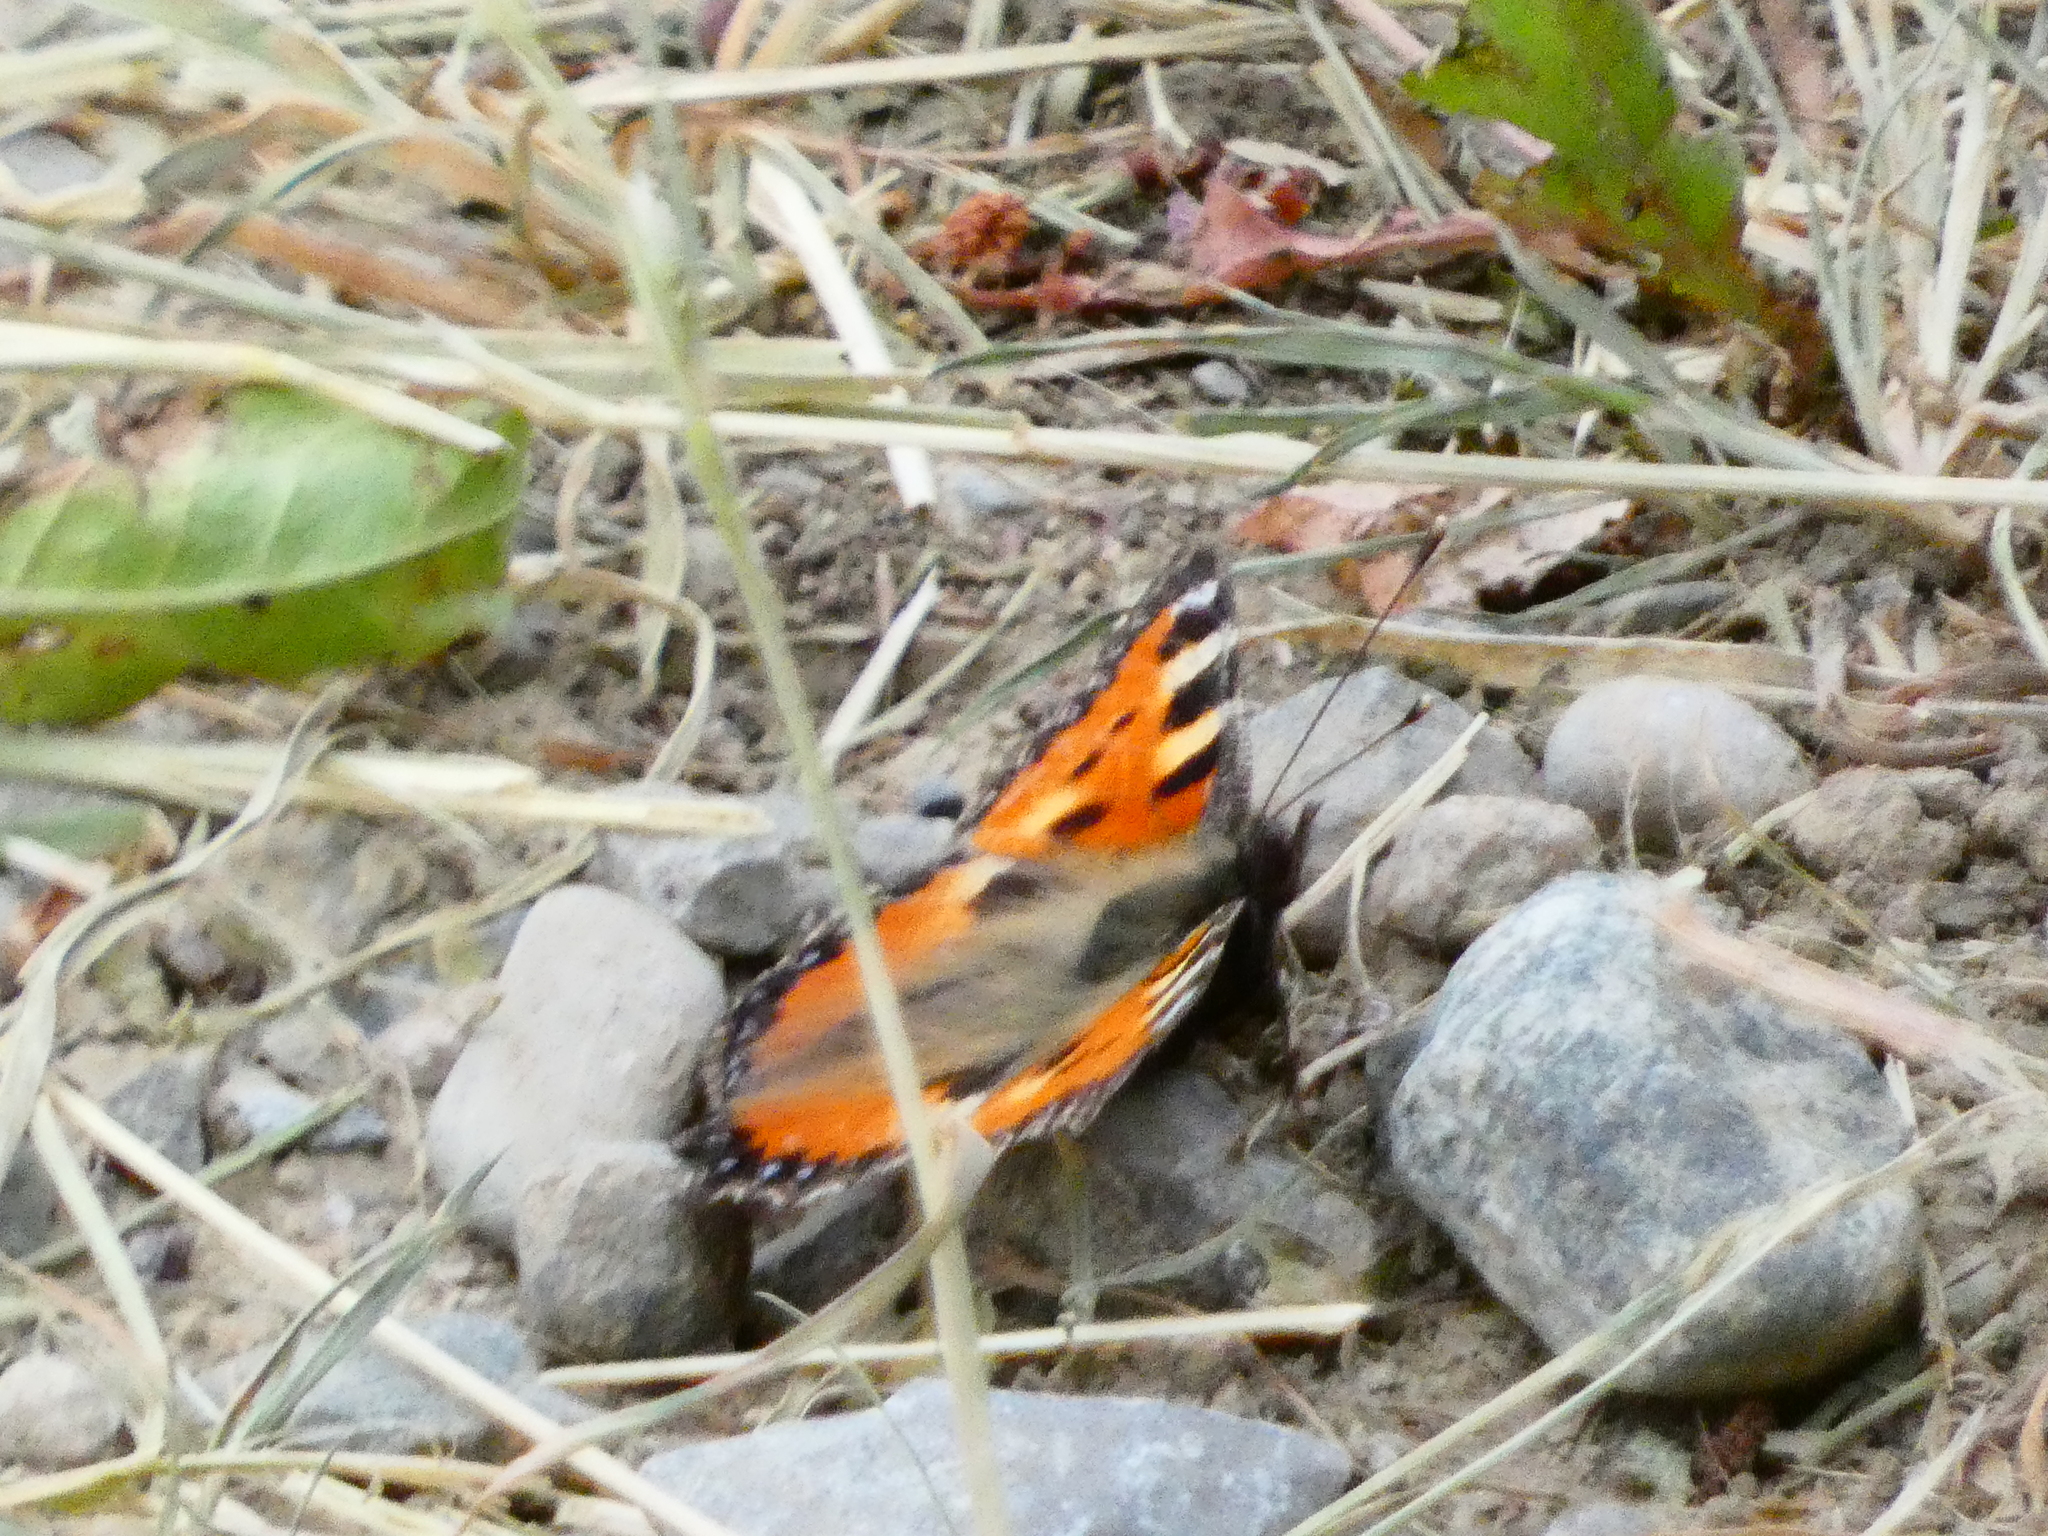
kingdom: Animalia
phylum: Arthropoda
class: Insecta
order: Lepidoptera
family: Nymphalidae
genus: Aglais
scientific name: Aglais urticae
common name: Small tortoiseshell
